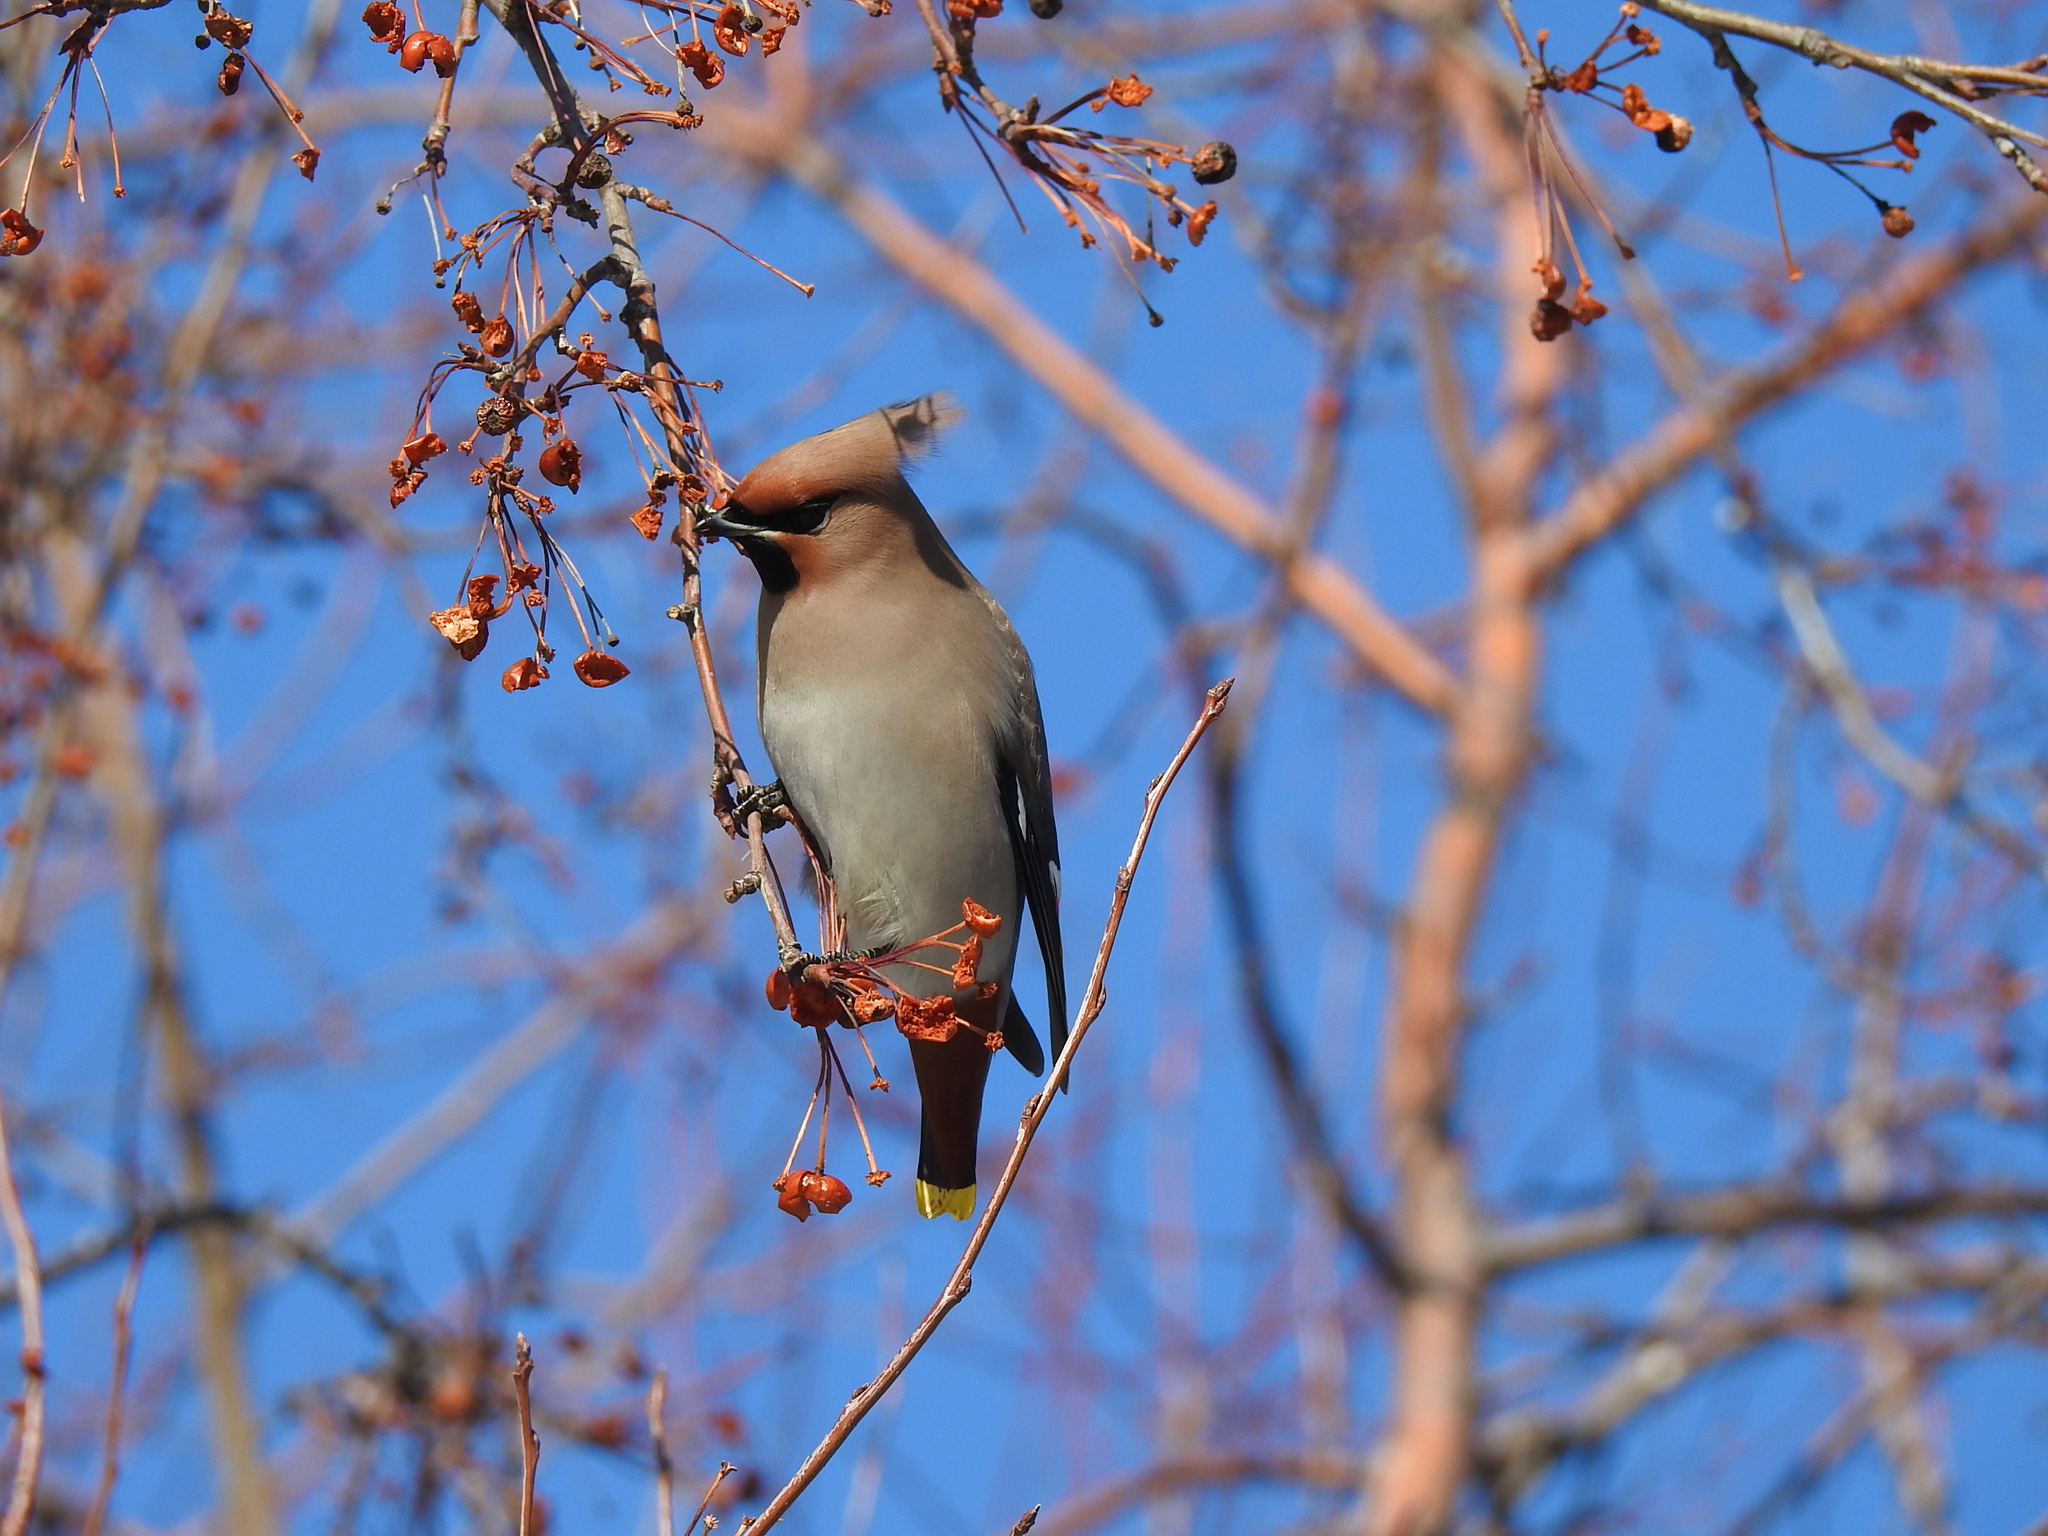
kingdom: Animalia
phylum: Chordata
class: Aves
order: Passeriformes
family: Bombycillidae
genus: Bombycilla
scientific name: Bombycilla garrulus
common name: Bohemian waxwing
